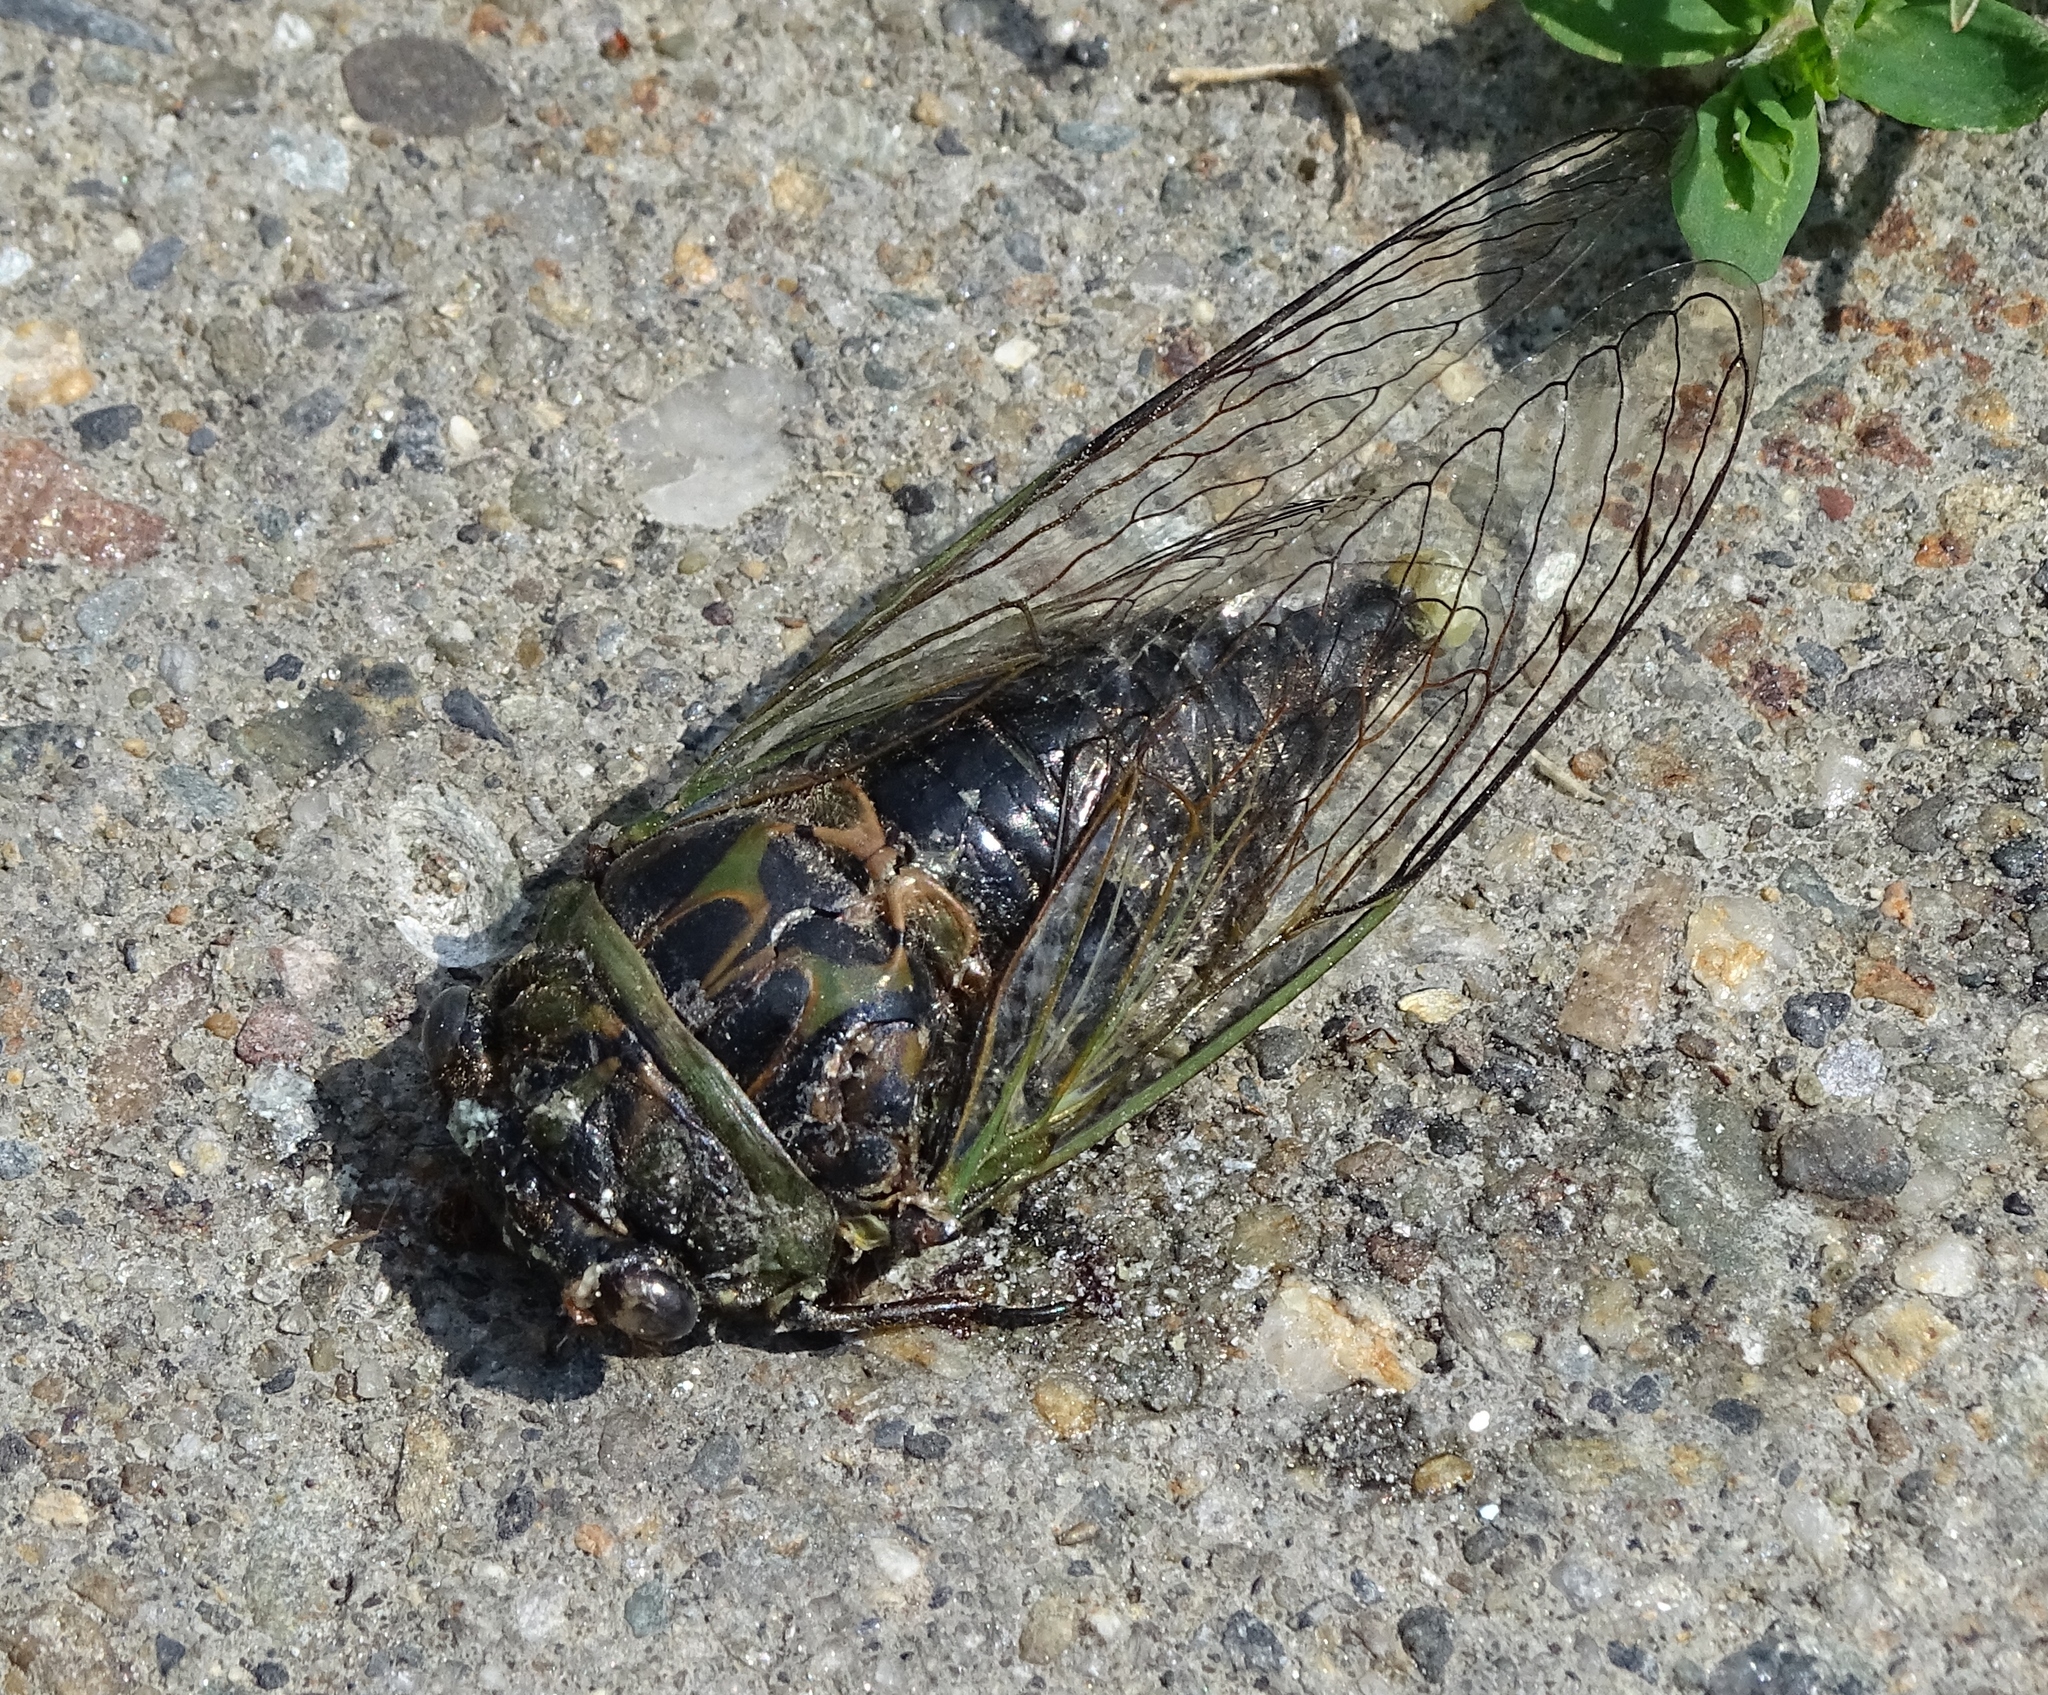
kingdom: Animalia
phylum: Arthropoda
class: Insecta
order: Hemiptera
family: Cicadidae
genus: Neotibicen
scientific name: Neotibicen canicularis
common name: God-day cicada
